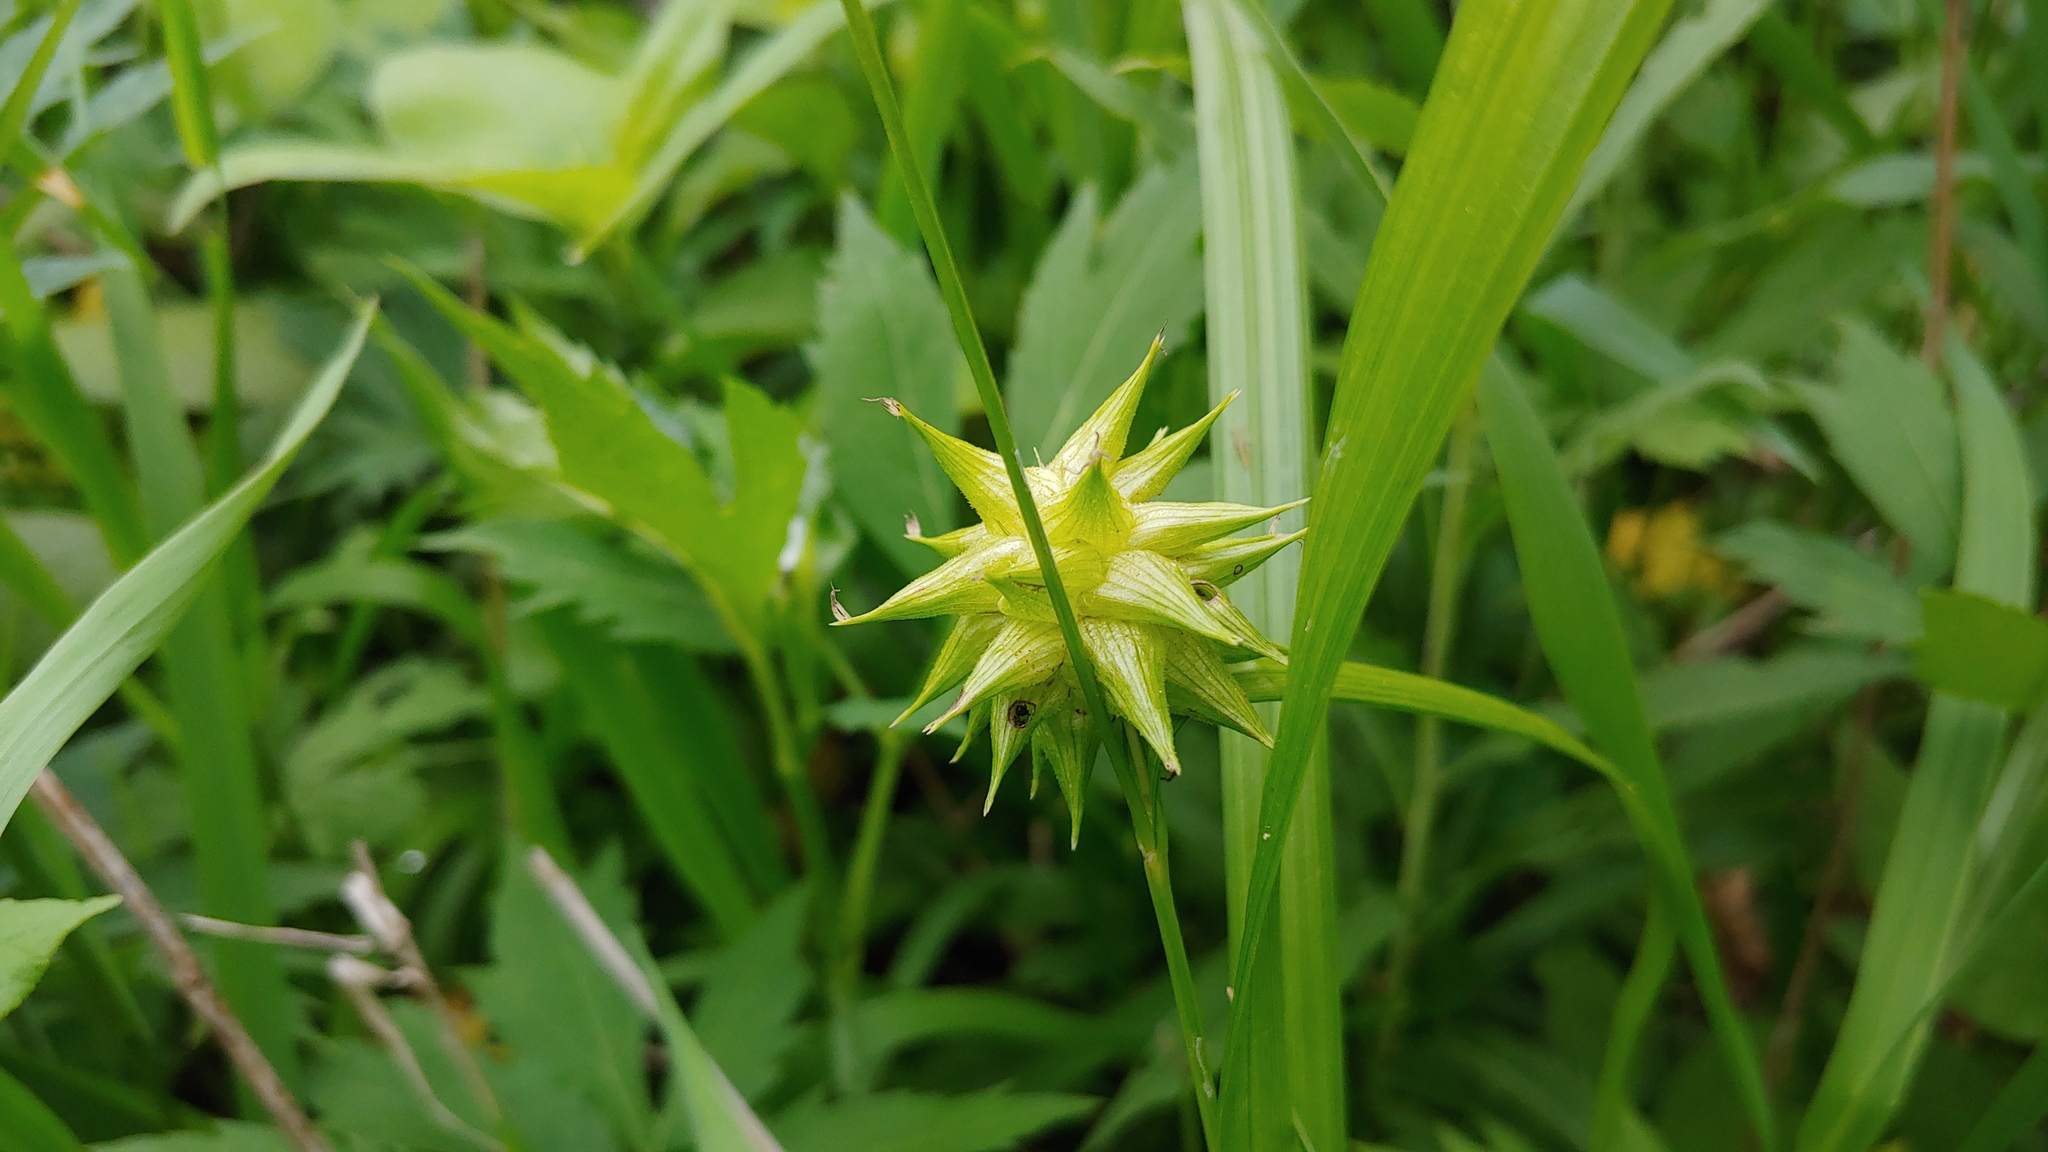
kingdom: Plantae
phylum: Tracheophyta
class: Liliopsida
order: Poales
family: Cyperaceae
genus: Carex
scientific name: Carex grayi
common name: Asa gray's sedge
